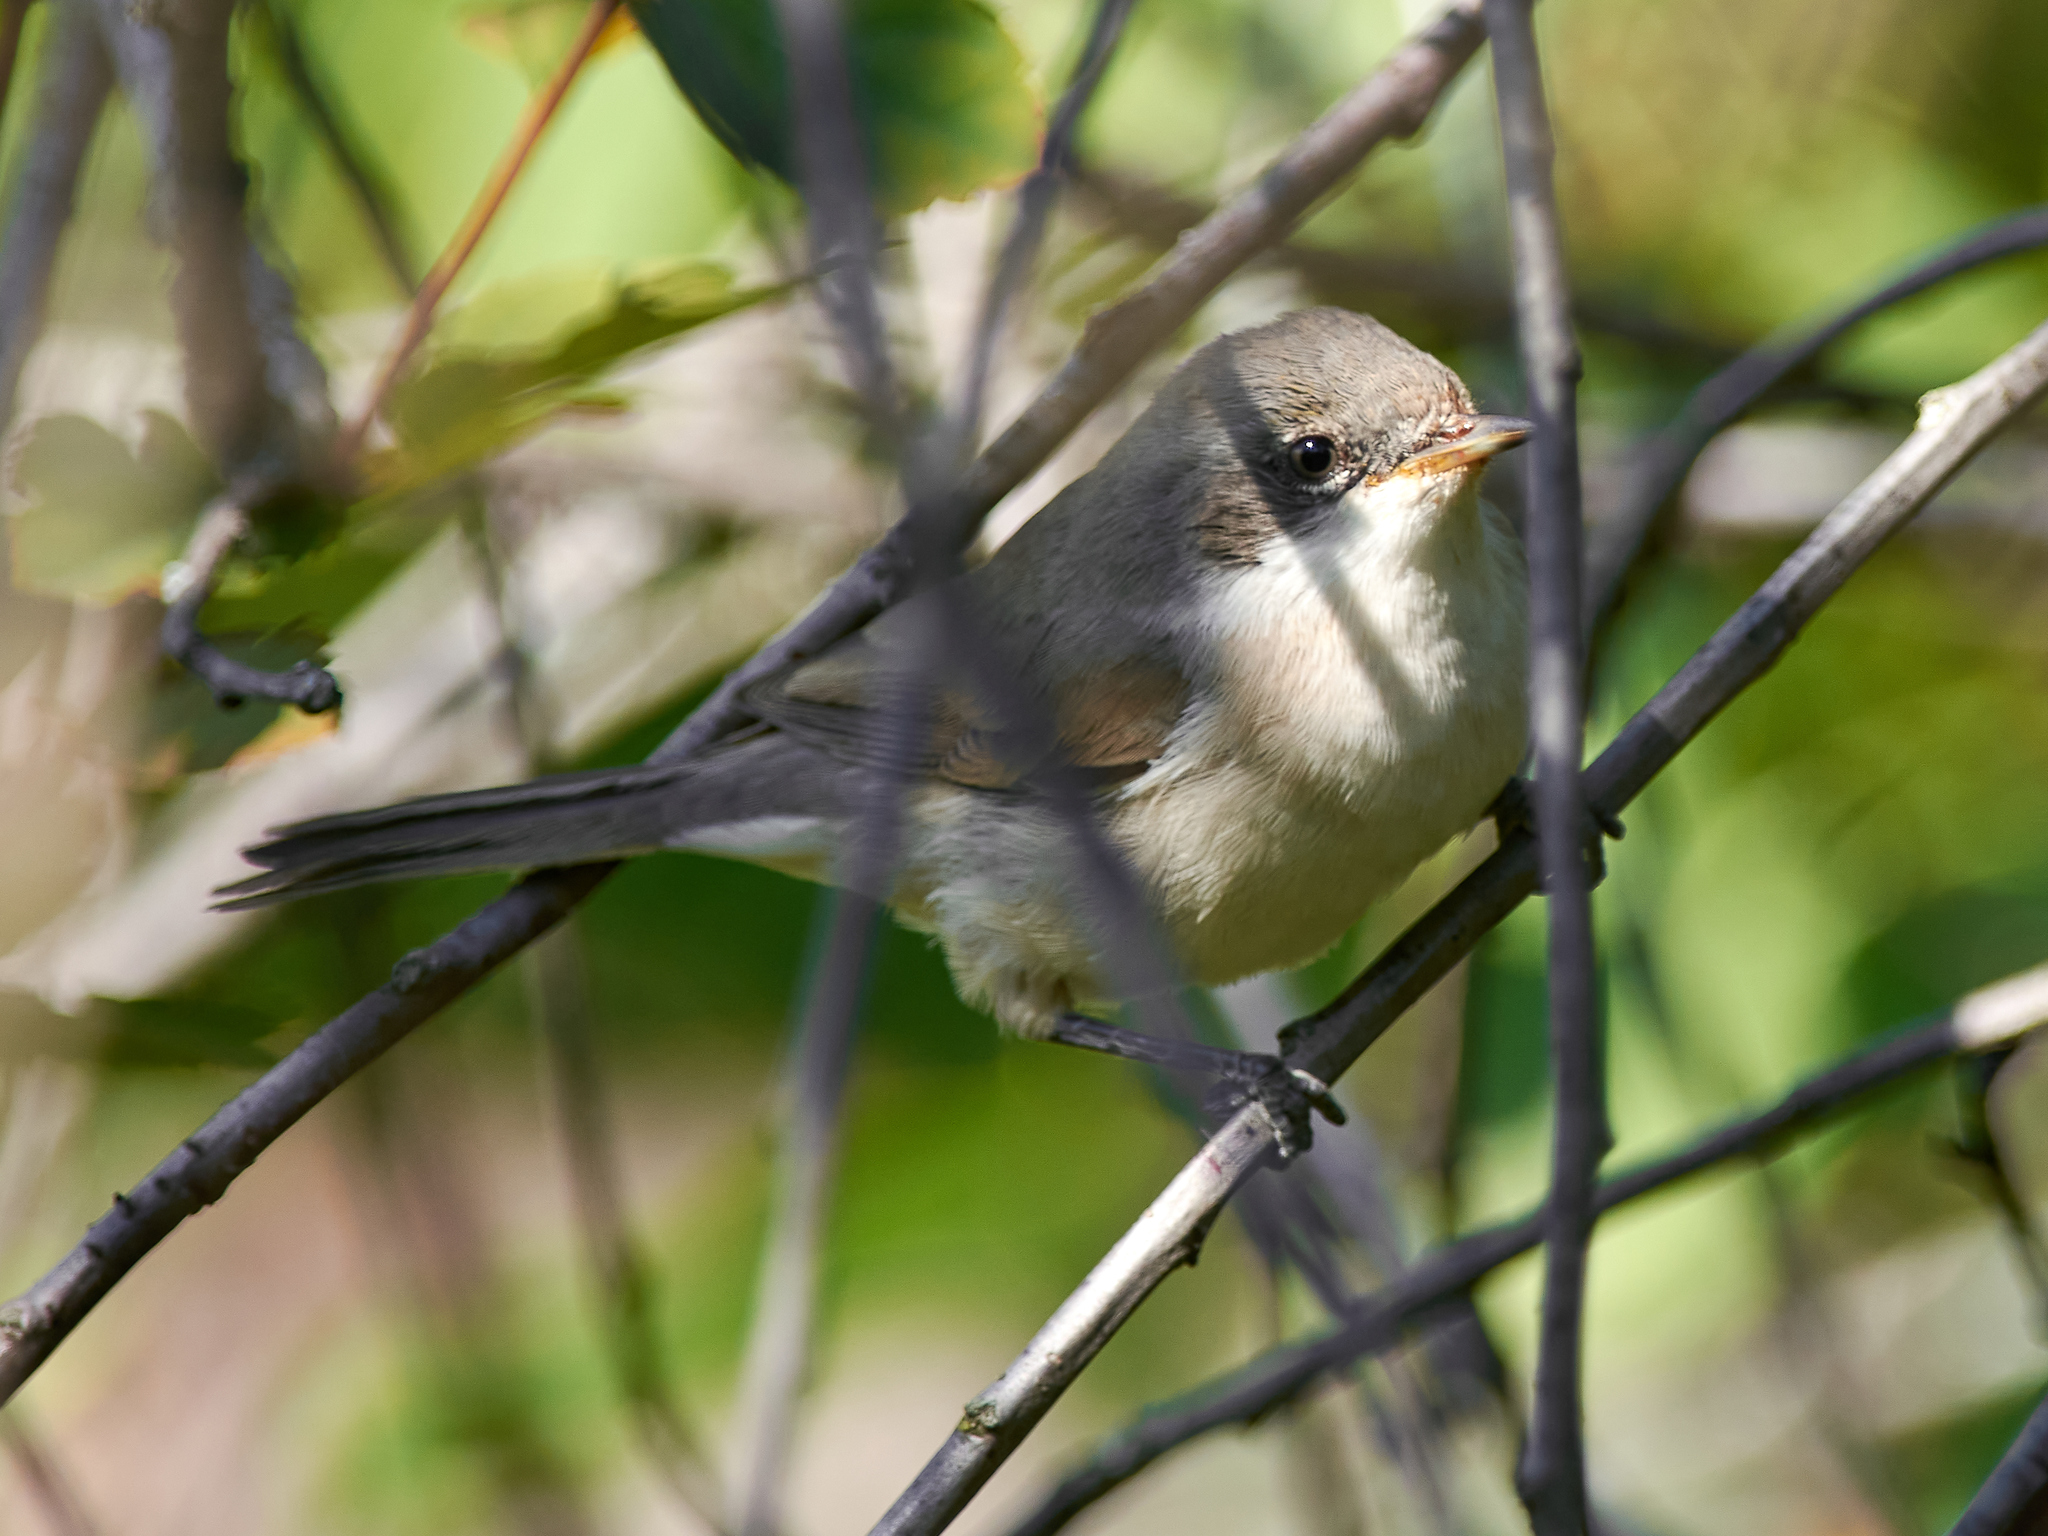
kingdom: Animalia
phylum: Chordata
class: Aves
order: Passeriformes
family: Sylviidae
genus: Sylvia
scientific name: Sylvia curruca
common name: Lesser whitethroat
